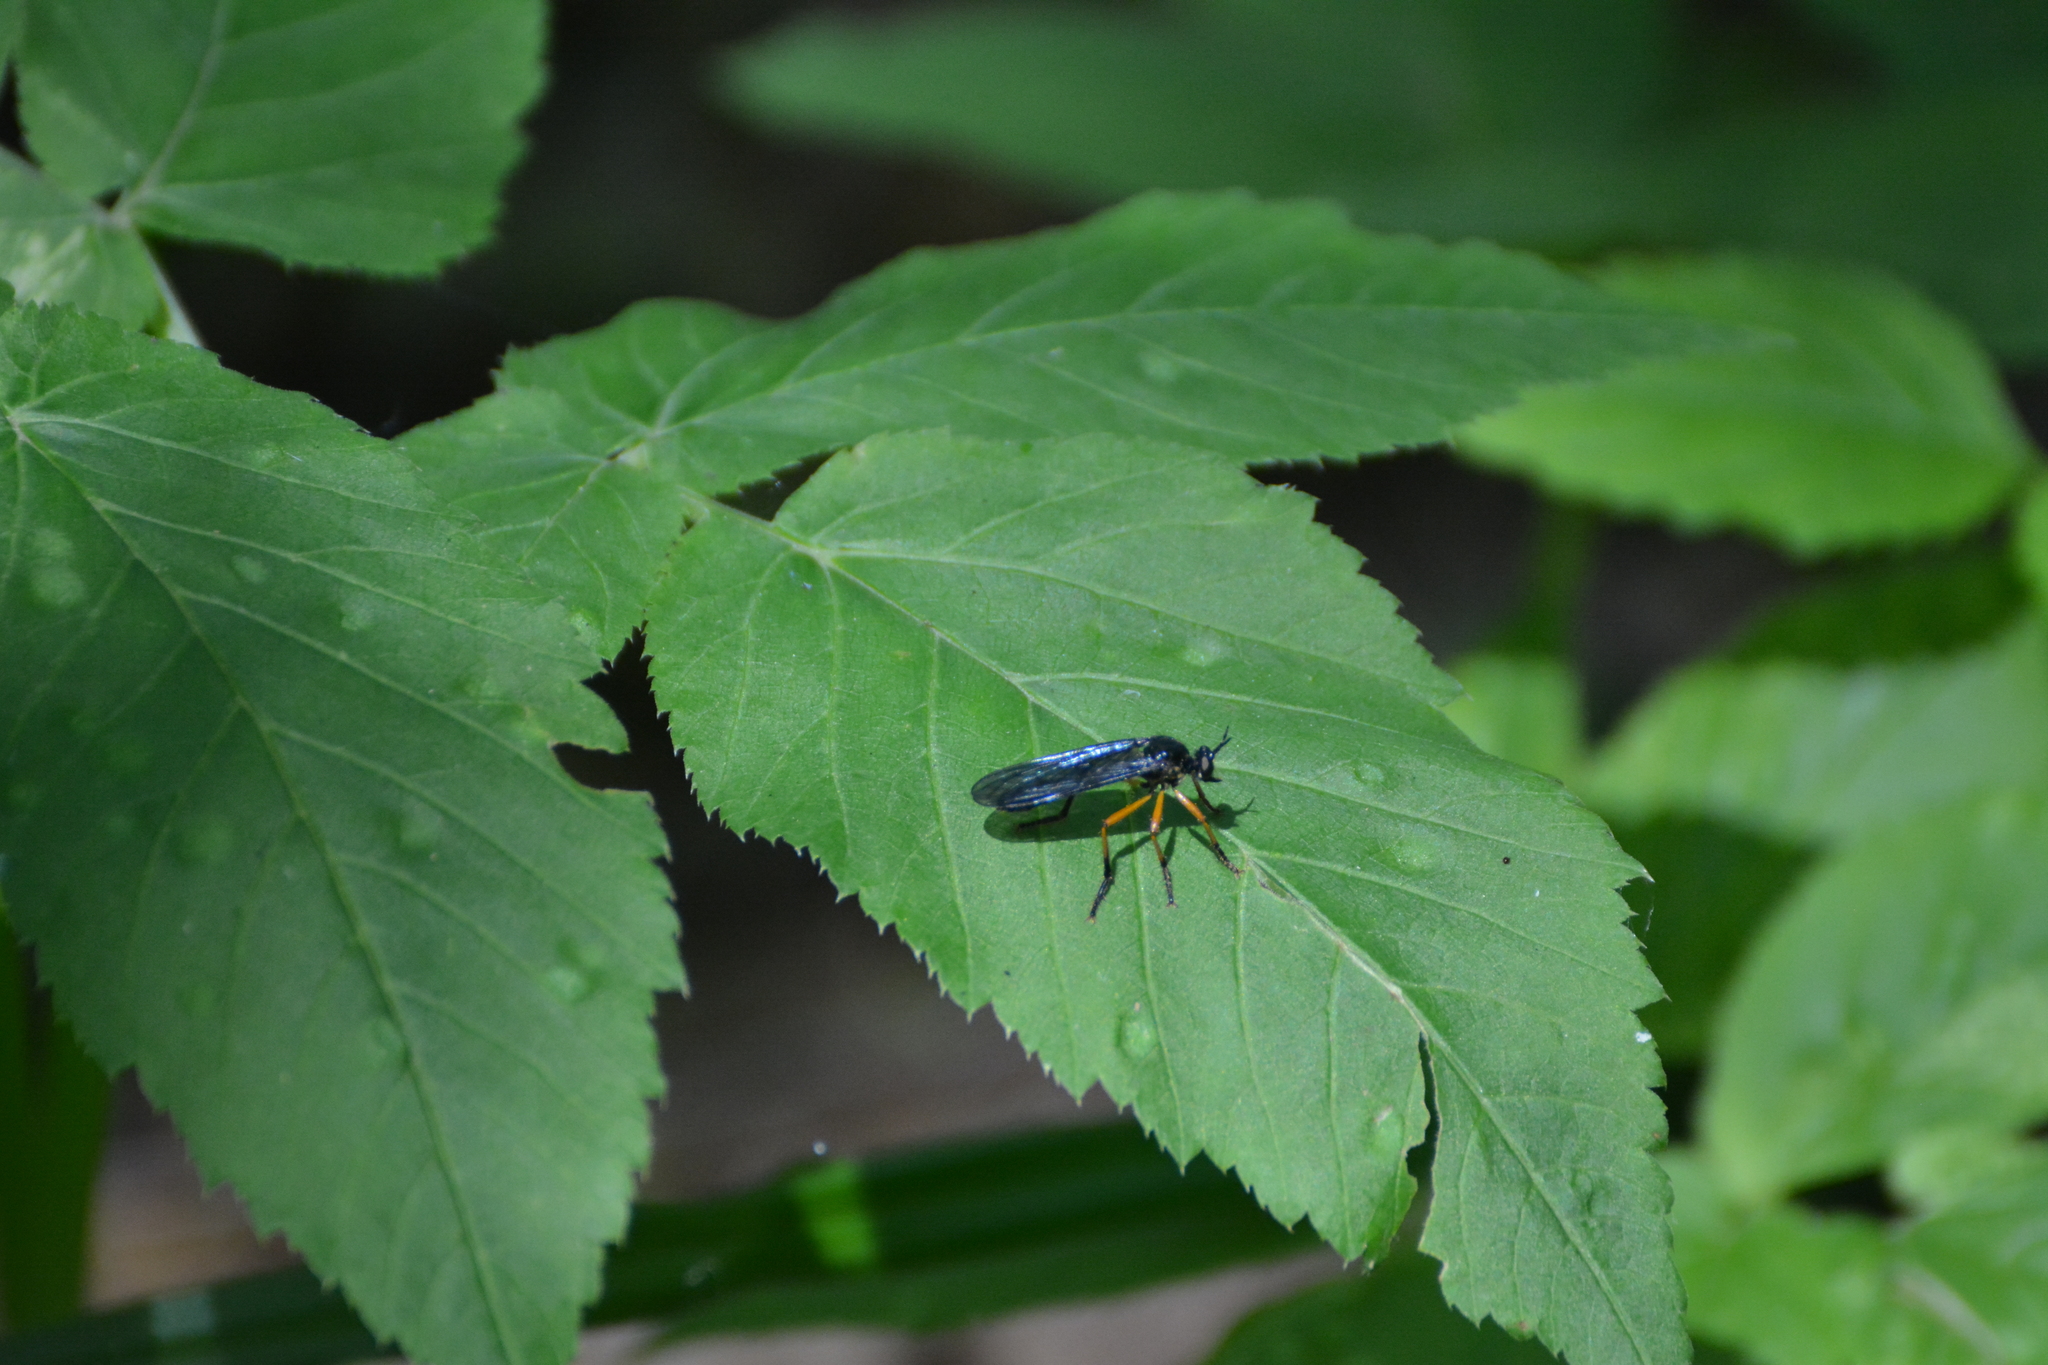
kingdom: Animalia
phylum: Arthropoda
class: Insecta
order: Diptera
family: Asilidae
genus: Dioctria
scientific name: Dioctria oelandica
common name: Orange-legged robberfly
